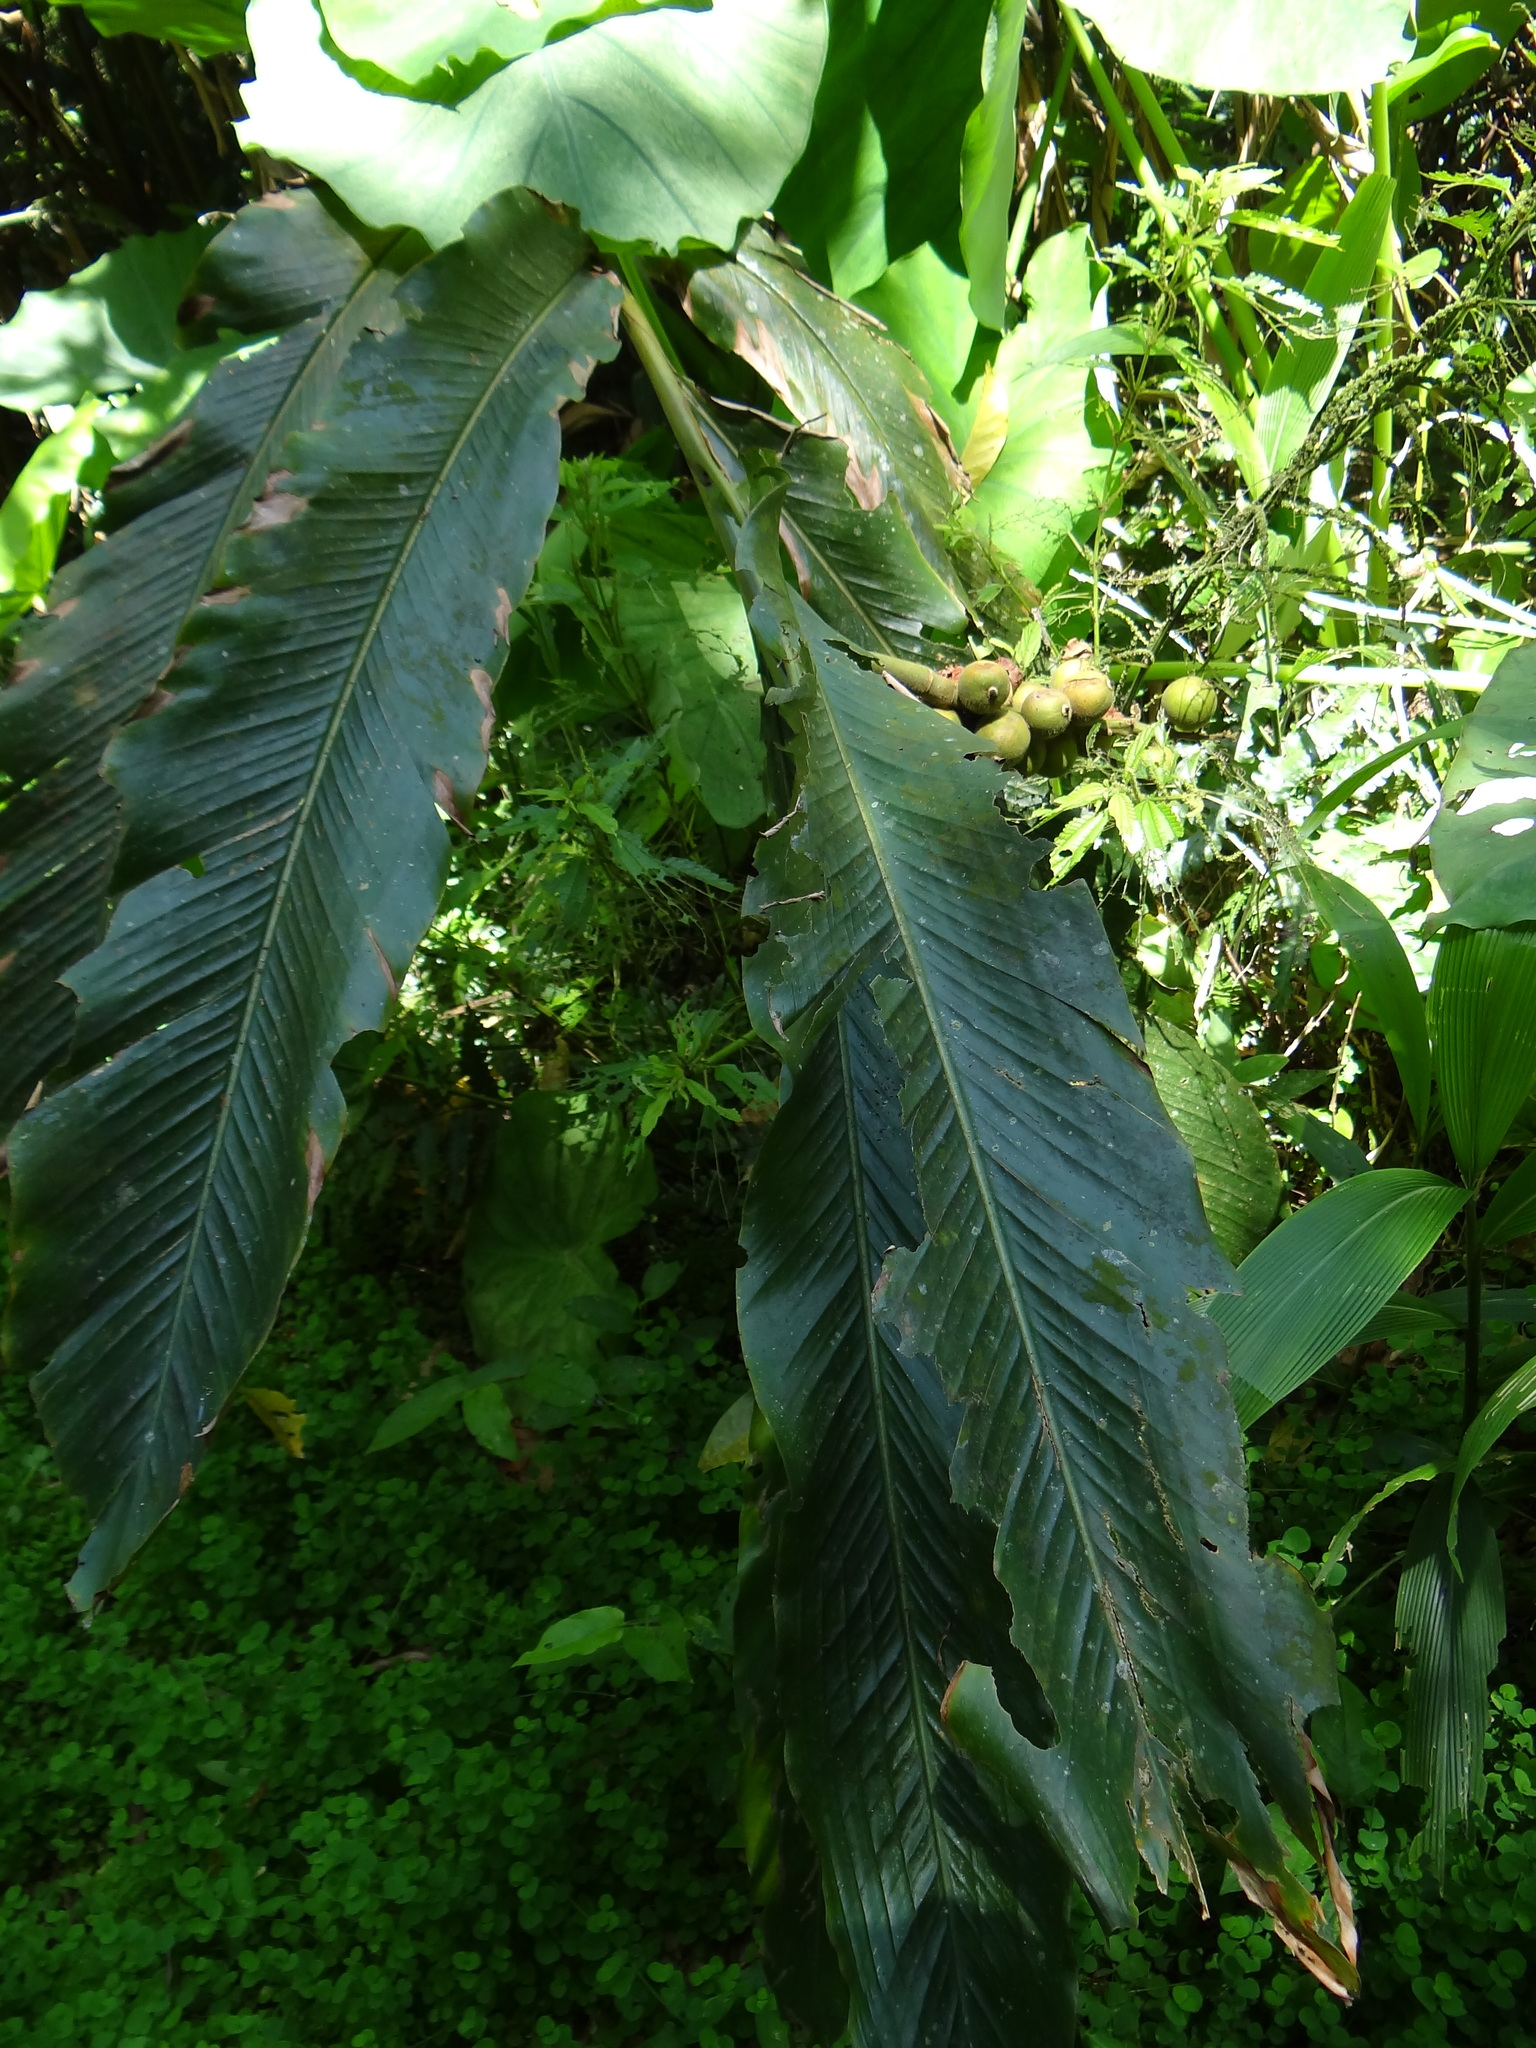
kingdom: Plantae
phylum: Tracheophyta
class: Liliopsida
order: Zingiberales
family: Zingiberaceae
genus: Alpinia
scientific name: Alpinia uraiensis
